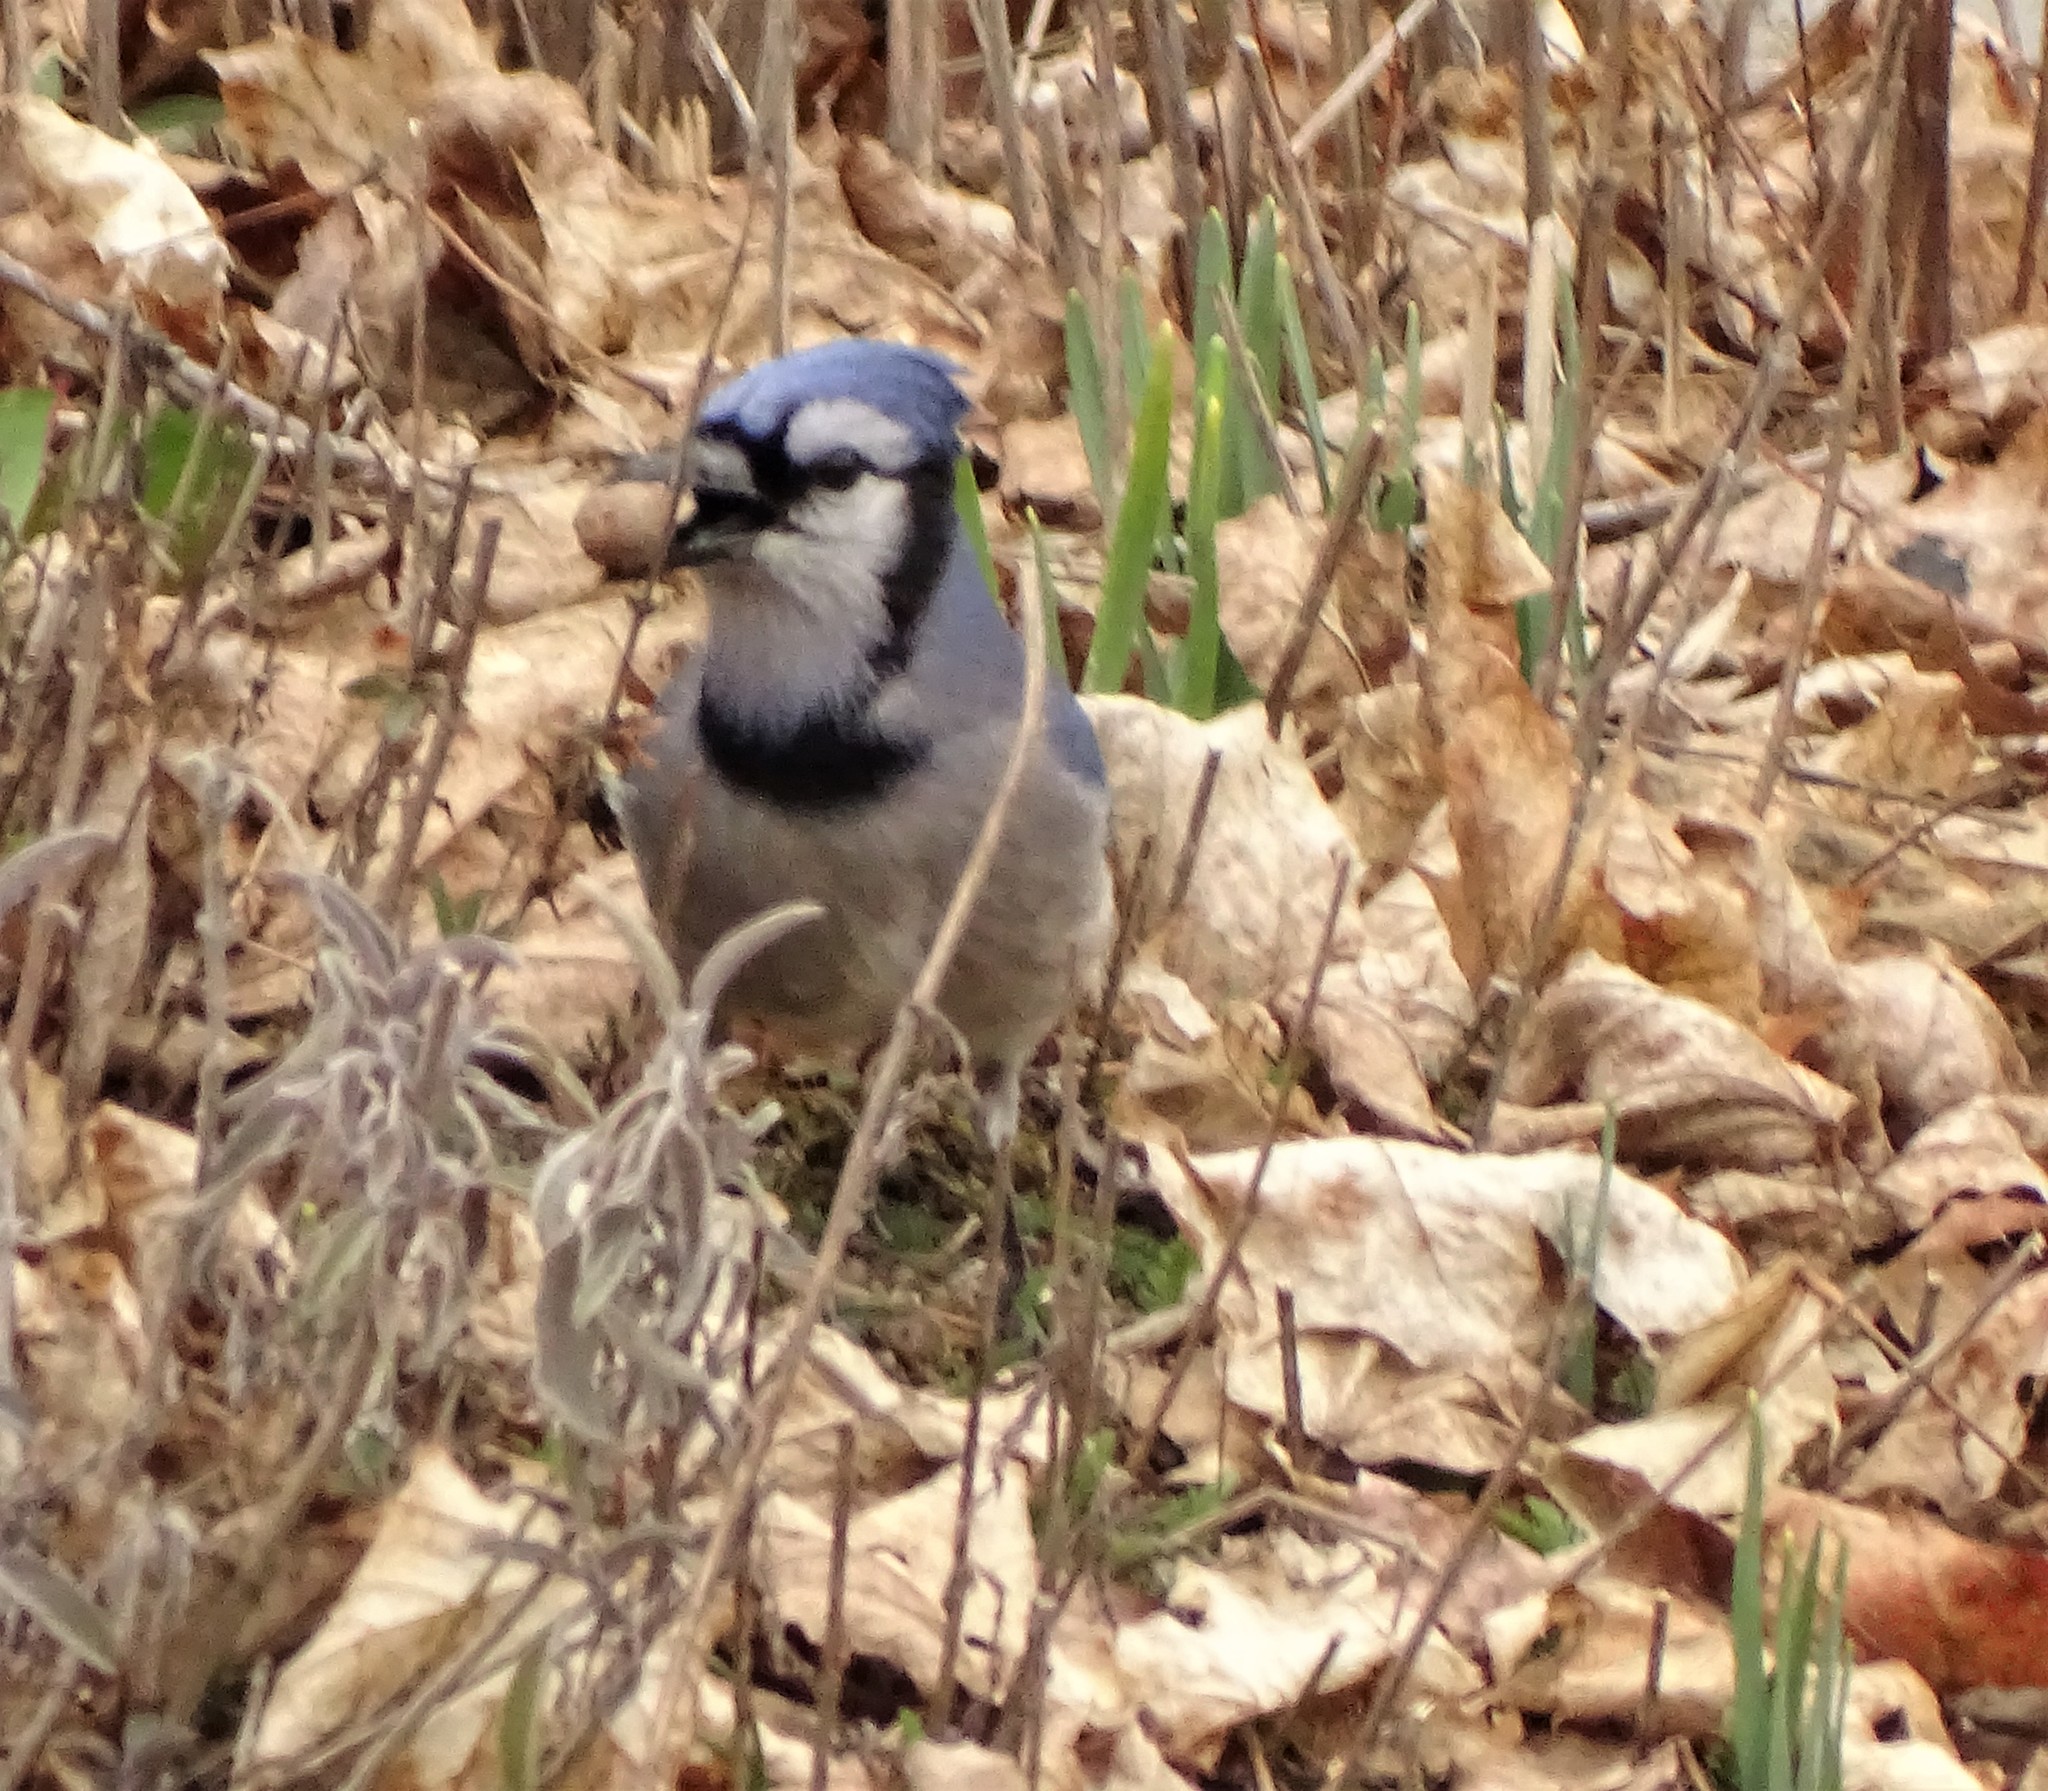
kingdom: Animalia
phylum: Chordata
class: Aves
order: Passeriformes
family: Corvidae
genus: Cyanocitta
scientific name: Cyanocitta cristata
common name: Blue jay
